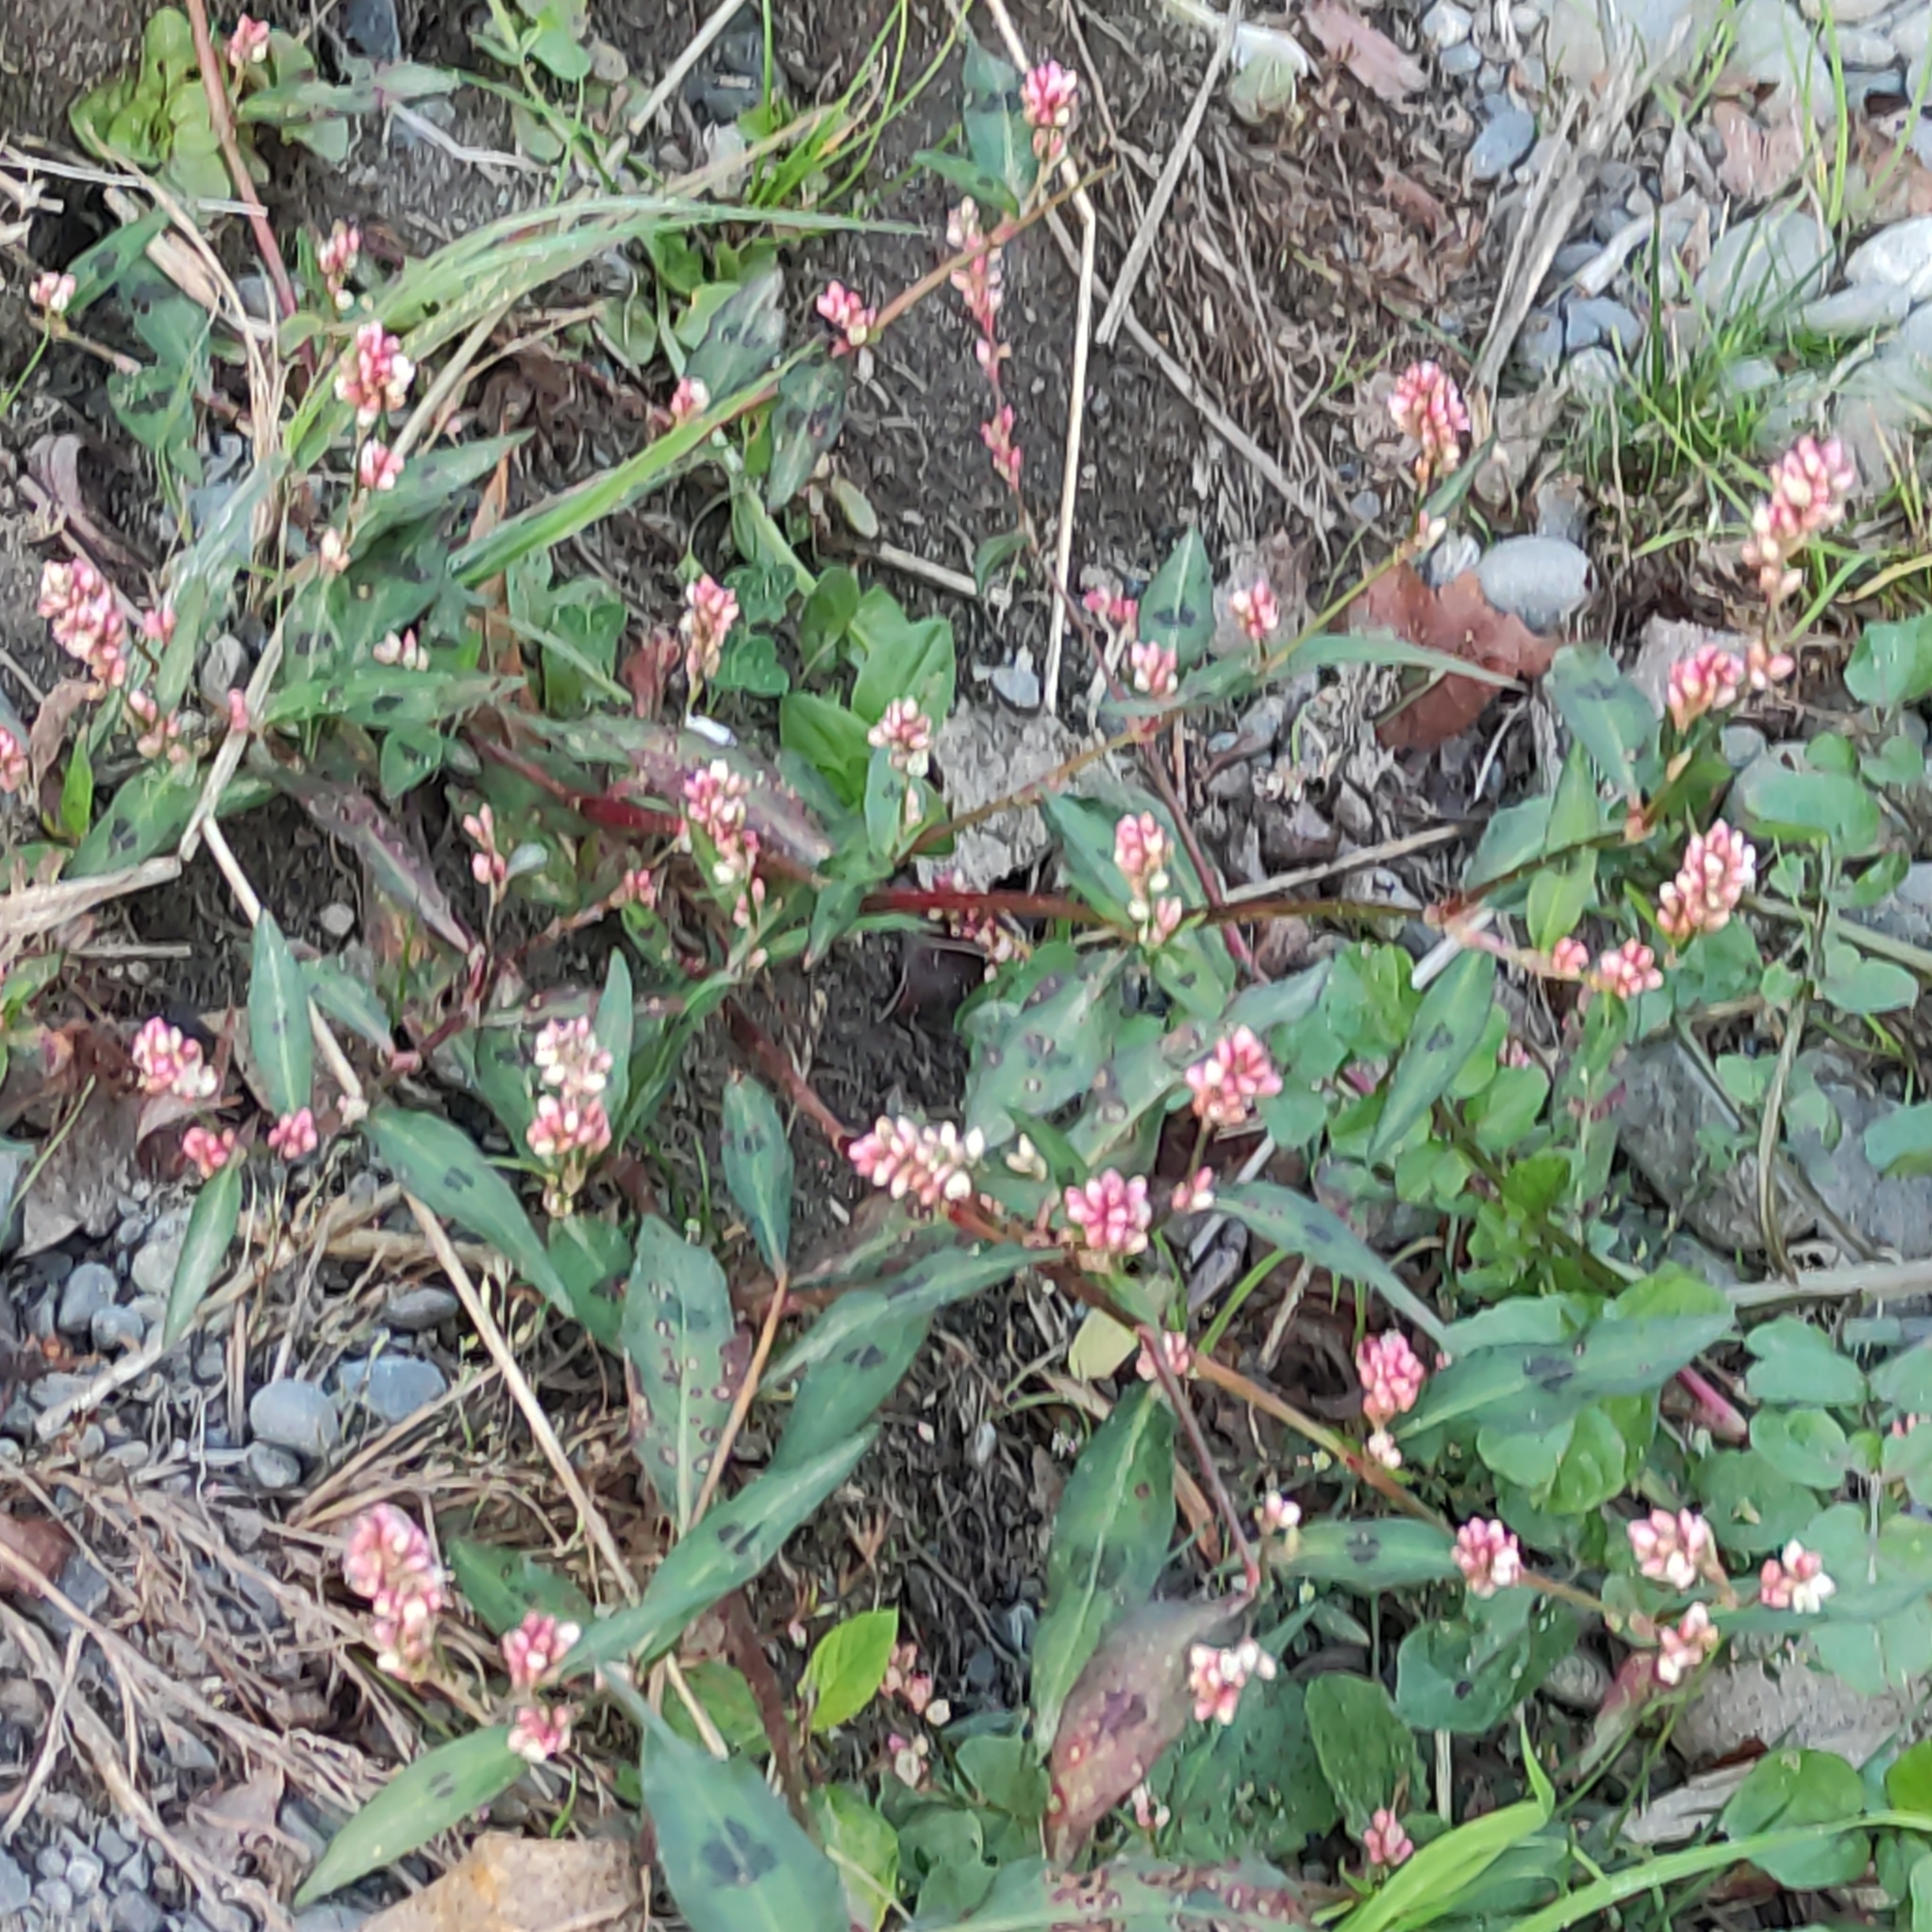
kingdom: Plantae
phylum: Tracheophyta
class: Magnoliopsida
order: Caryophyllales
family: Polygonaceae
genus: Persicaria
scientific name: Persicaria maculosa
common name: Redshank
